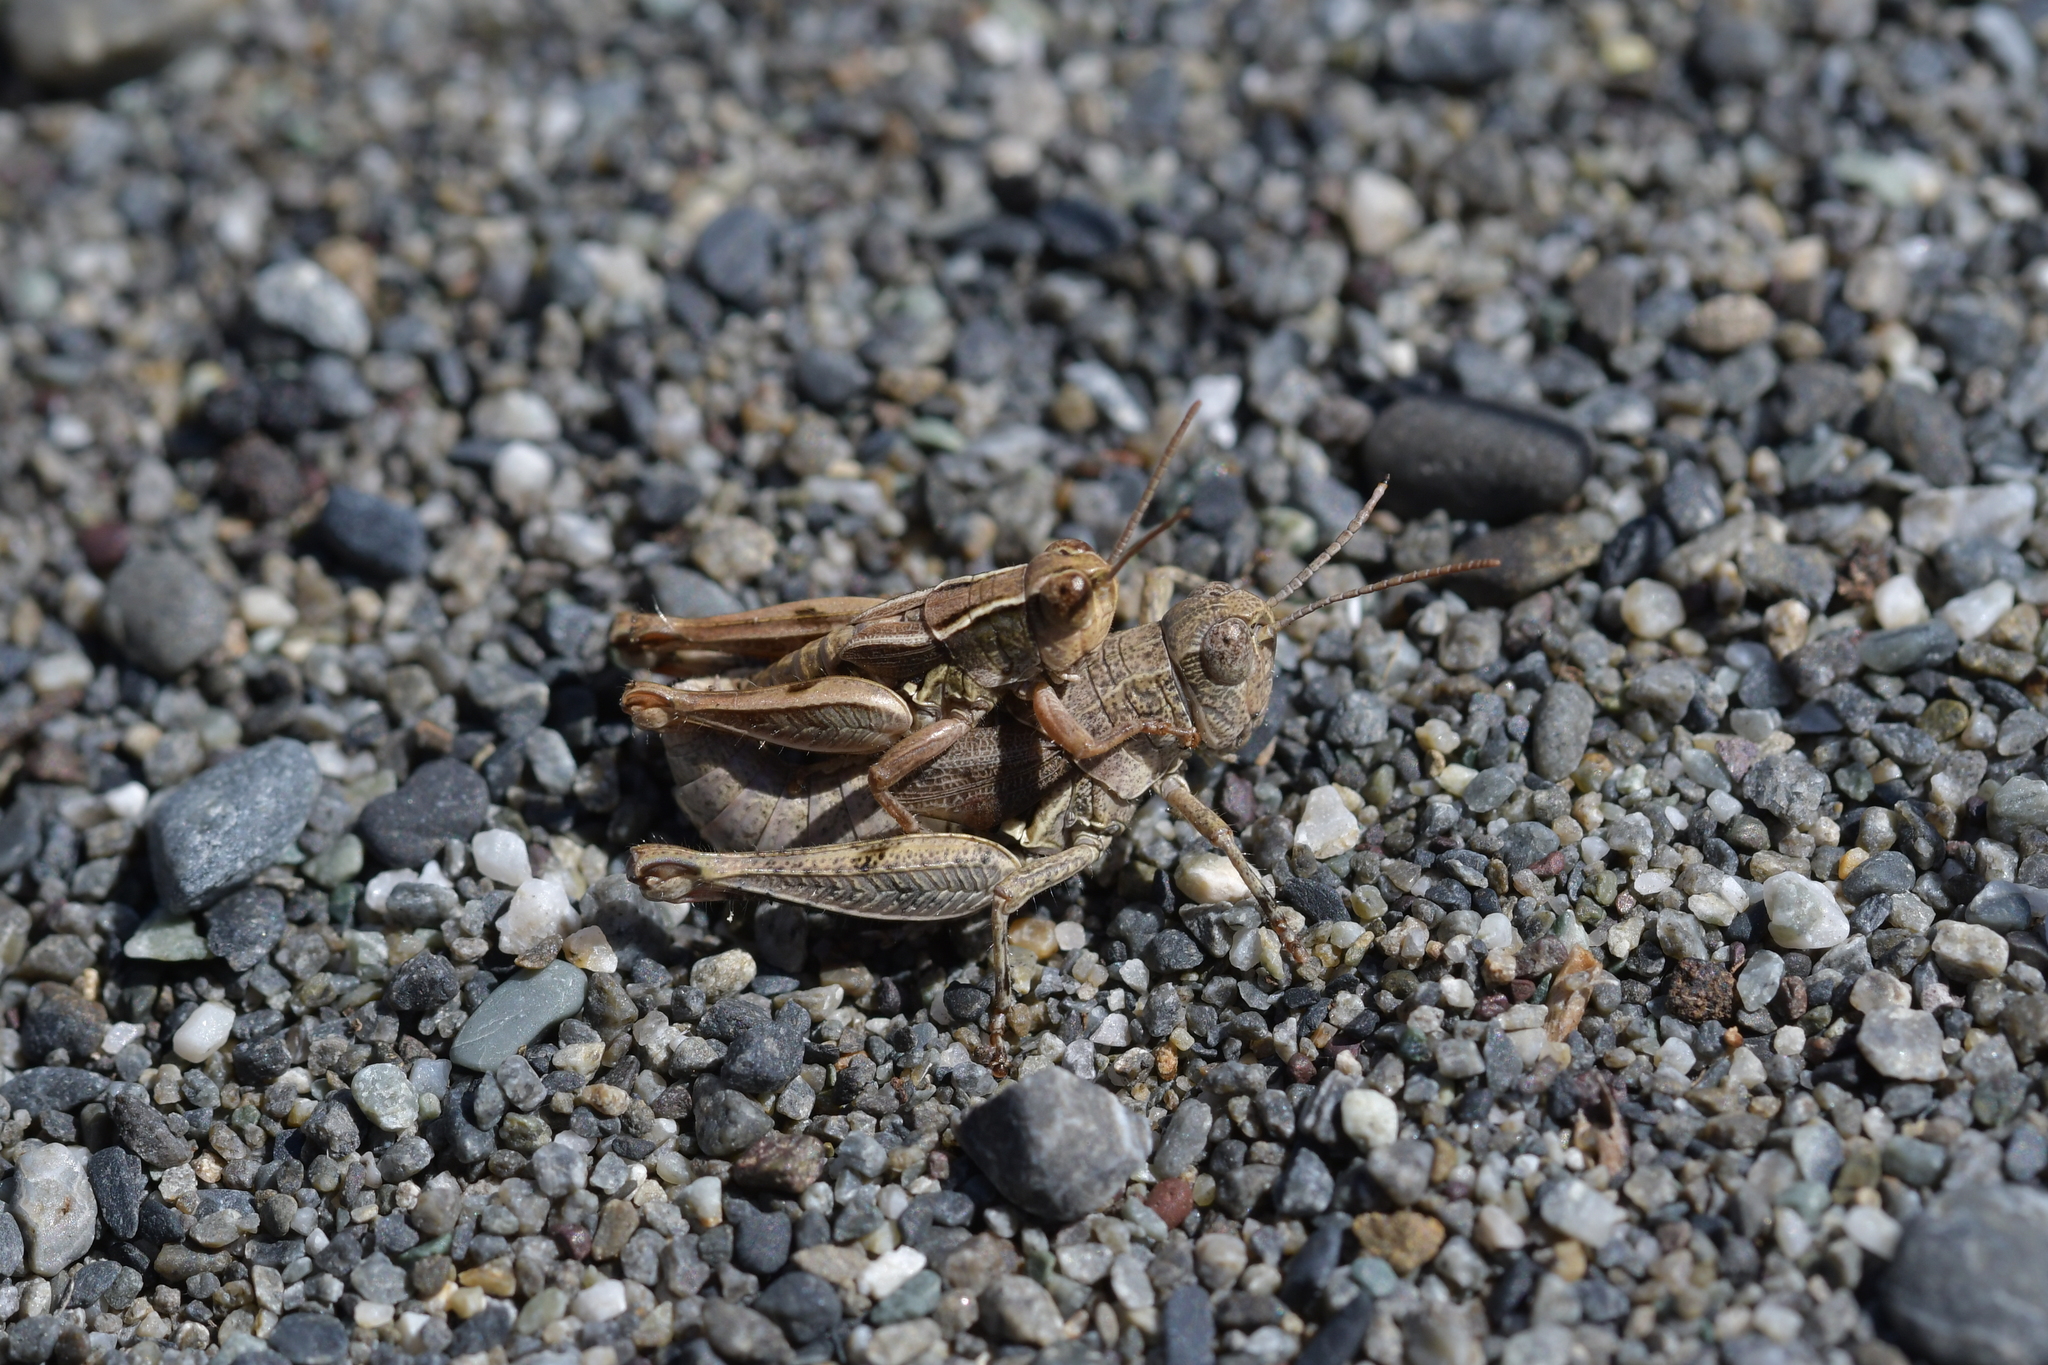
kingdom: Animalia
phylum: Arthropoda
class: Insecta
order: Orthoptera
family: Acrididae
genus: Phaulacridium
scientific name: Phaulacridium marginale
